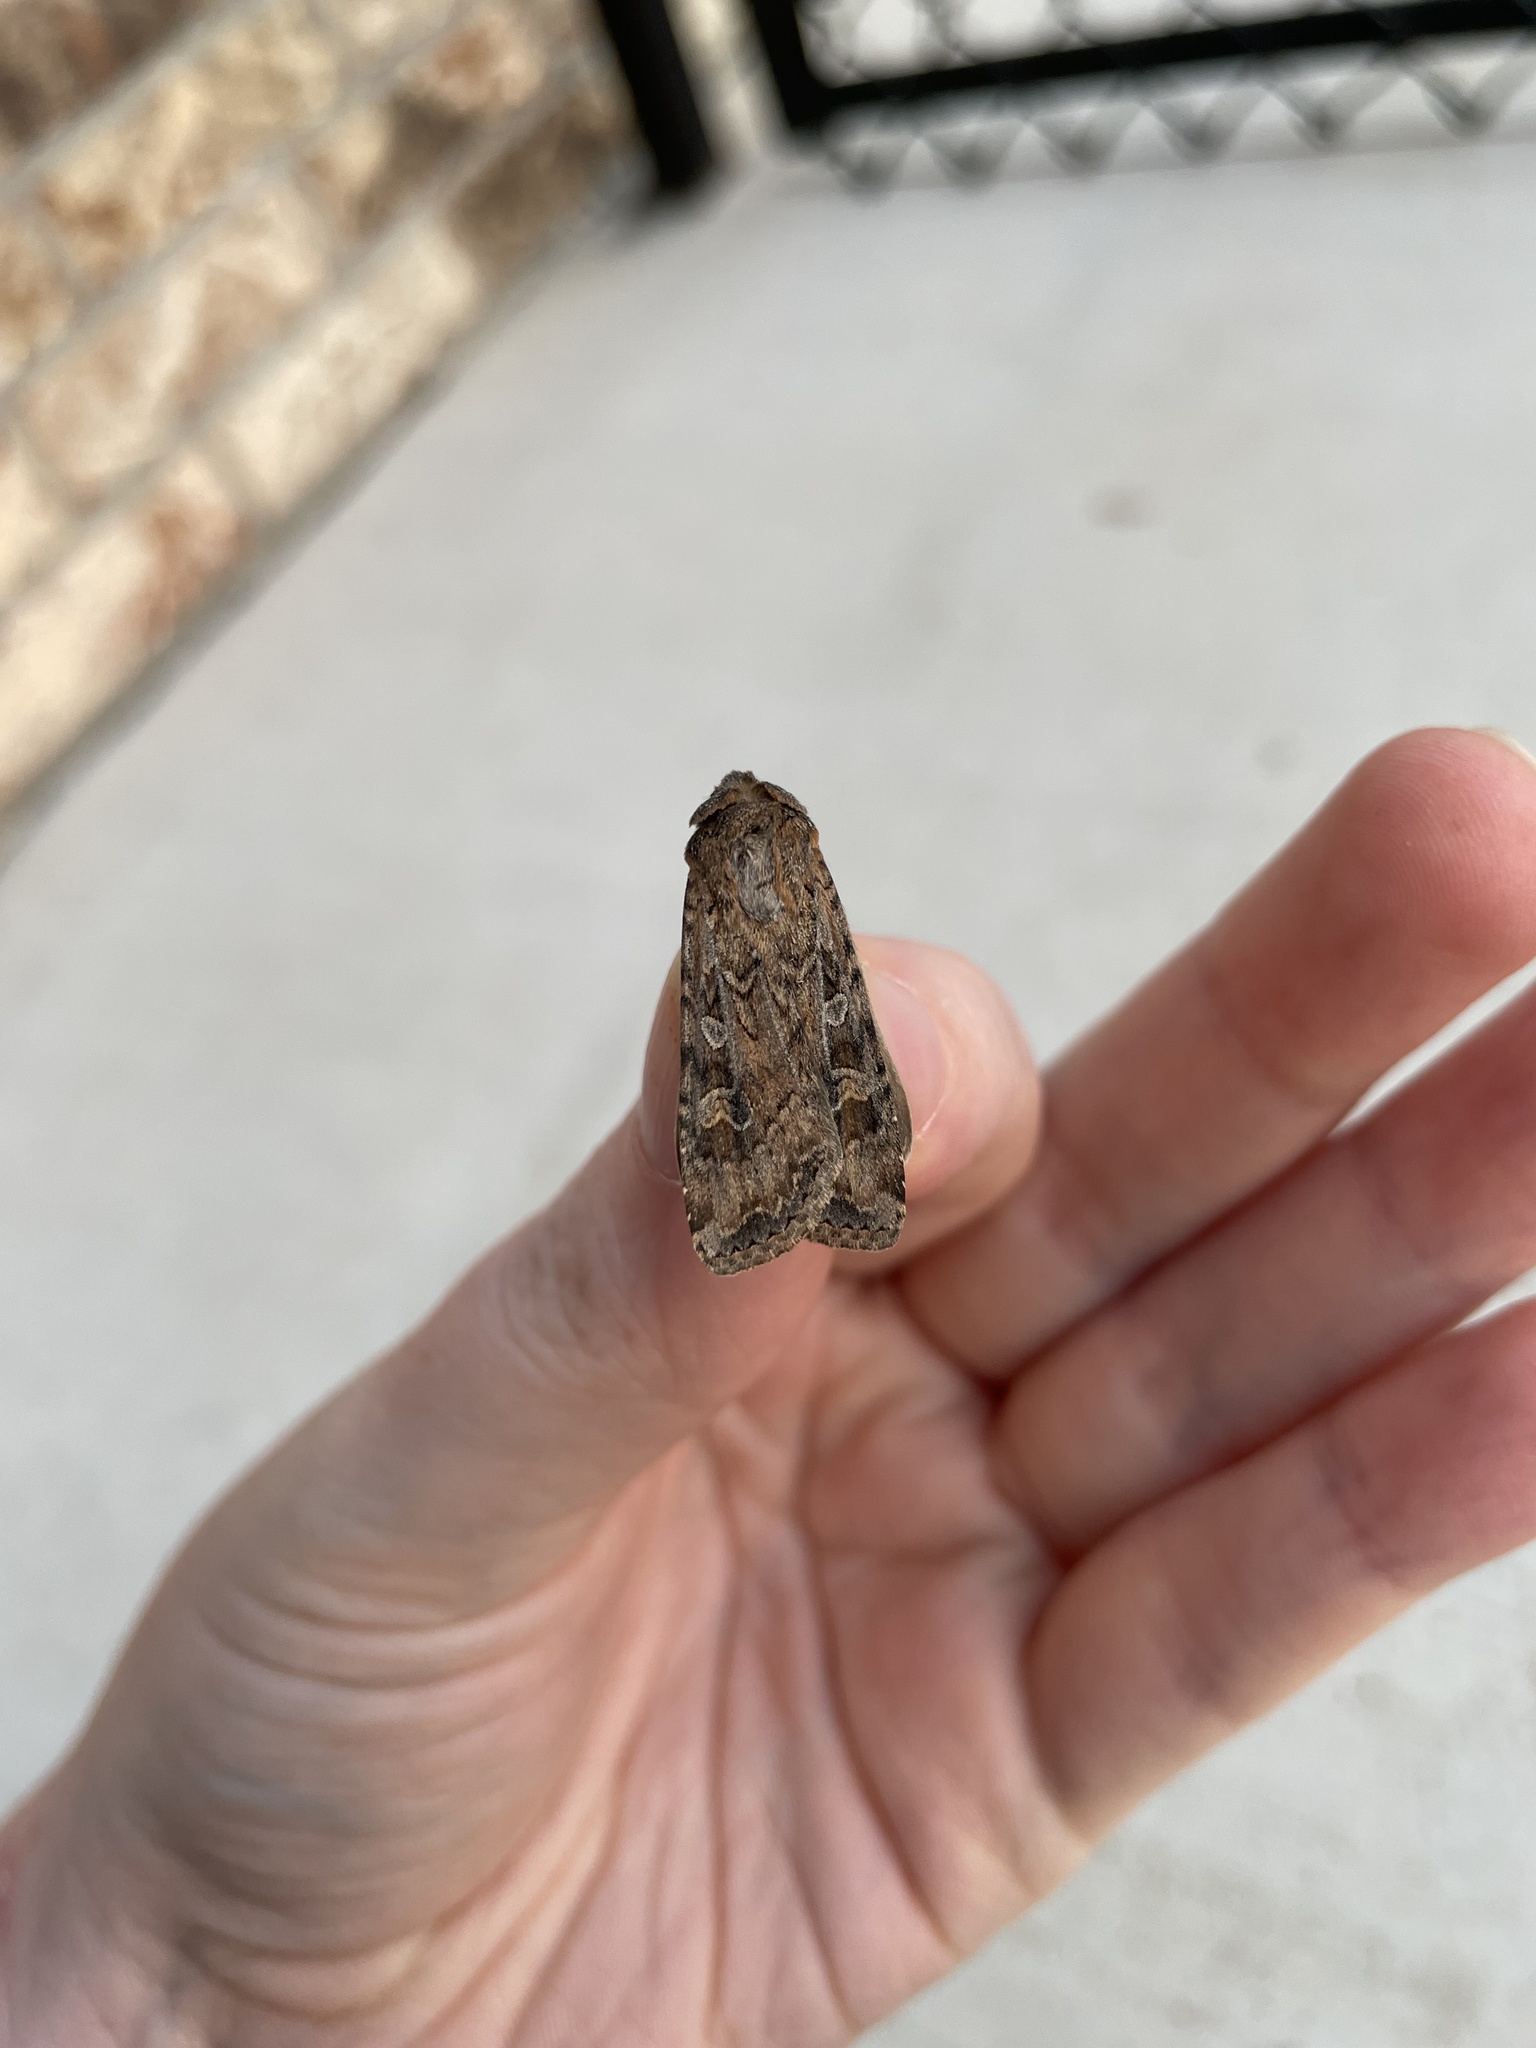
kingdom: Animalia
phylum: Arthropoda
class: Insecta
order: Lepidoptera
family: Noctuidae
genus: Euxoa
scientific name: Euxoa auxiliaris
